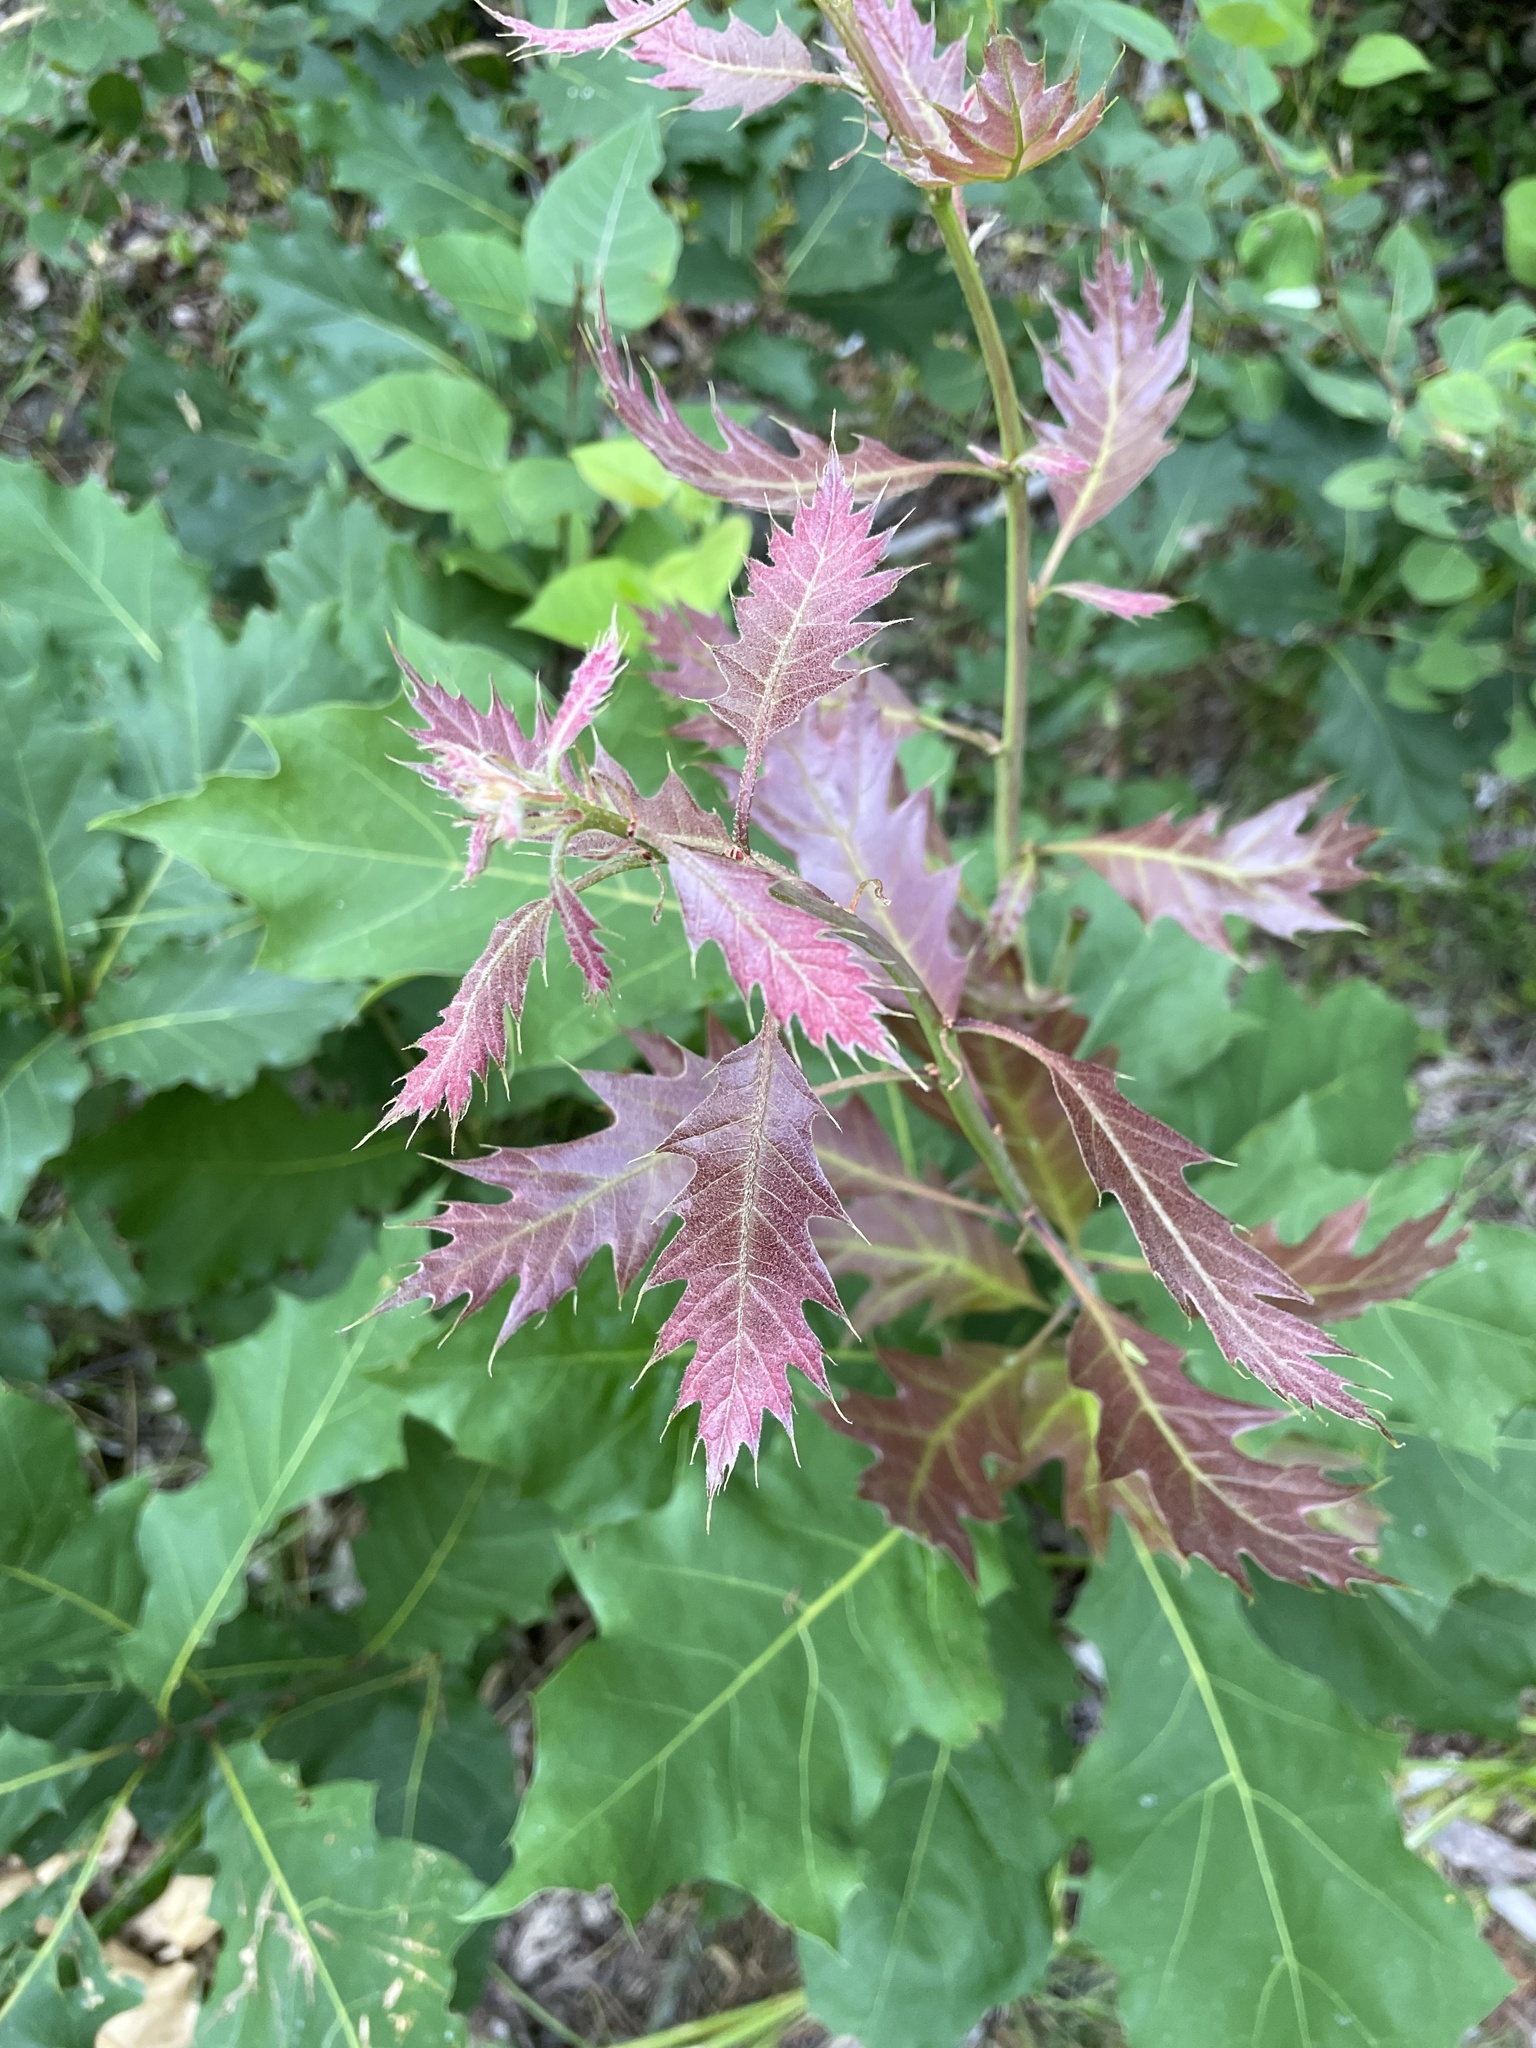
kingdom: Plantae
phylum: Tracheophyta
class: Magnoliopsida
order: Fagales
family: Fagaceae
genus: Quercus
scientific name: Quercus rubra
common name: Red oak
